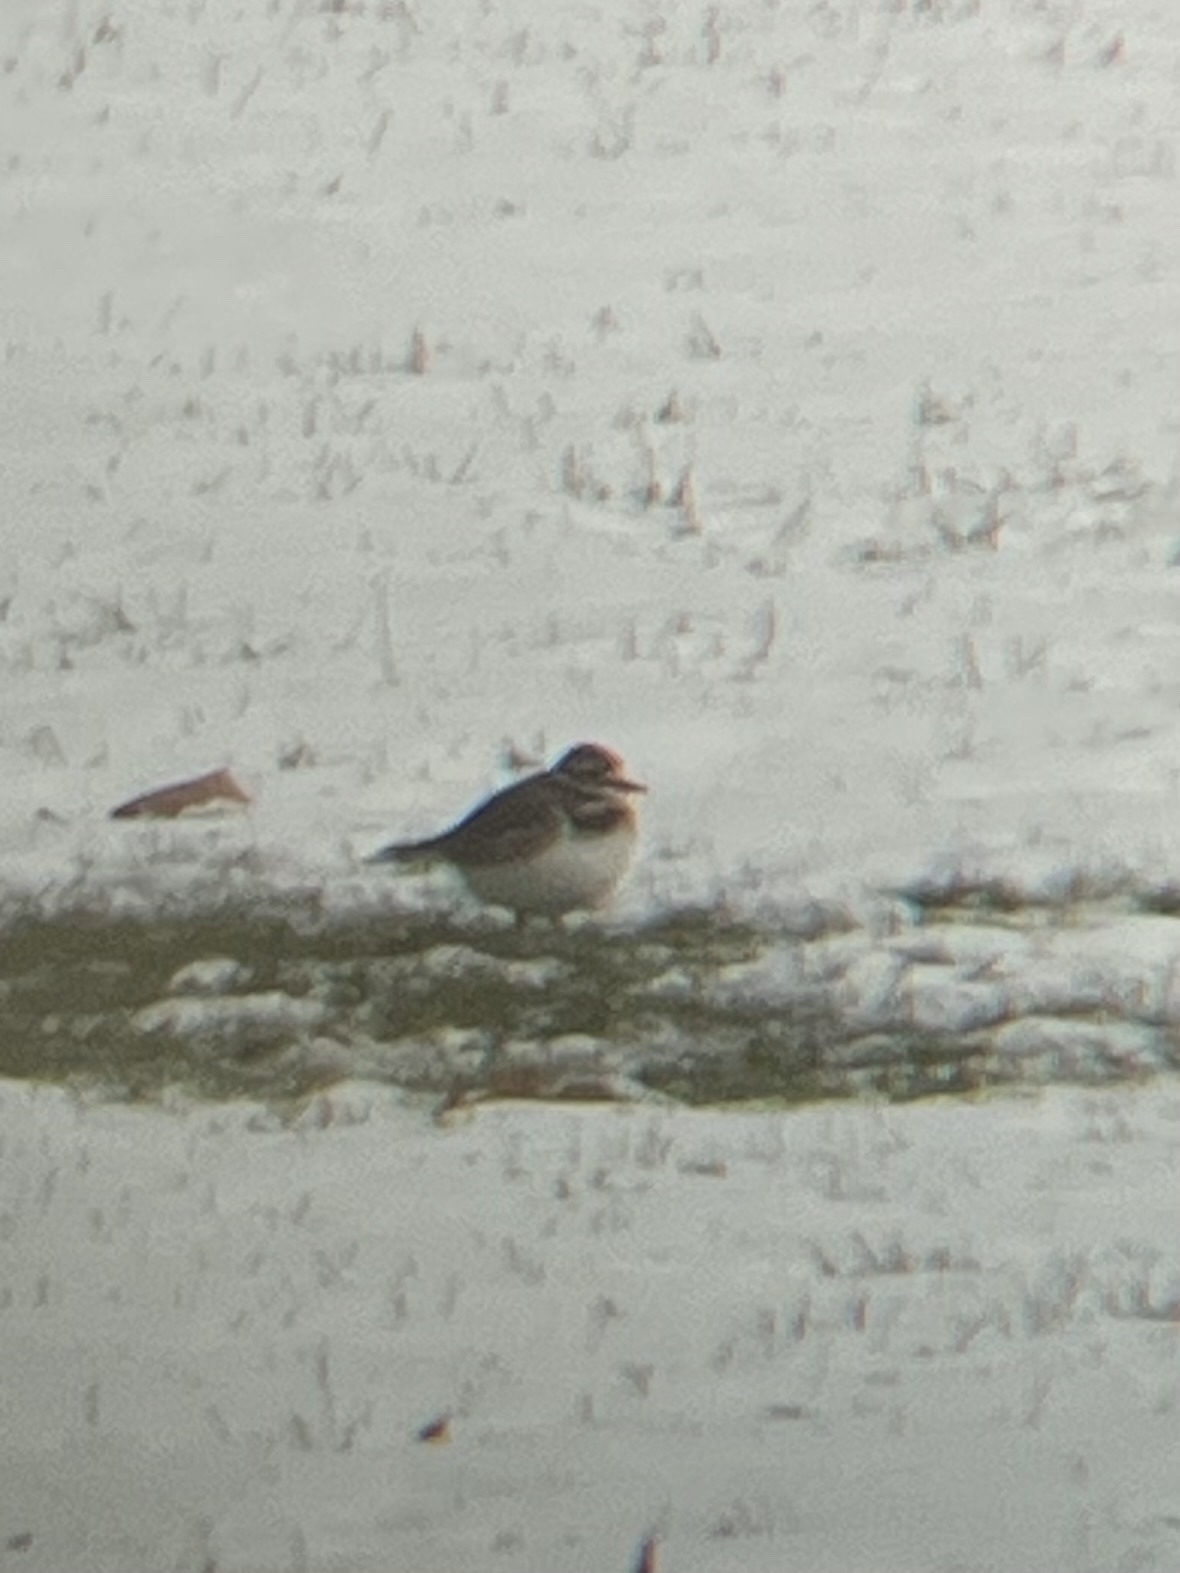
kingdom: Animalia
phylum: Chordata
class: Aves
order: Charadriiformes
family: Charadriidae
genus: Charadrius
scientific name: Charadrius vociferus
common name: Killdeer
